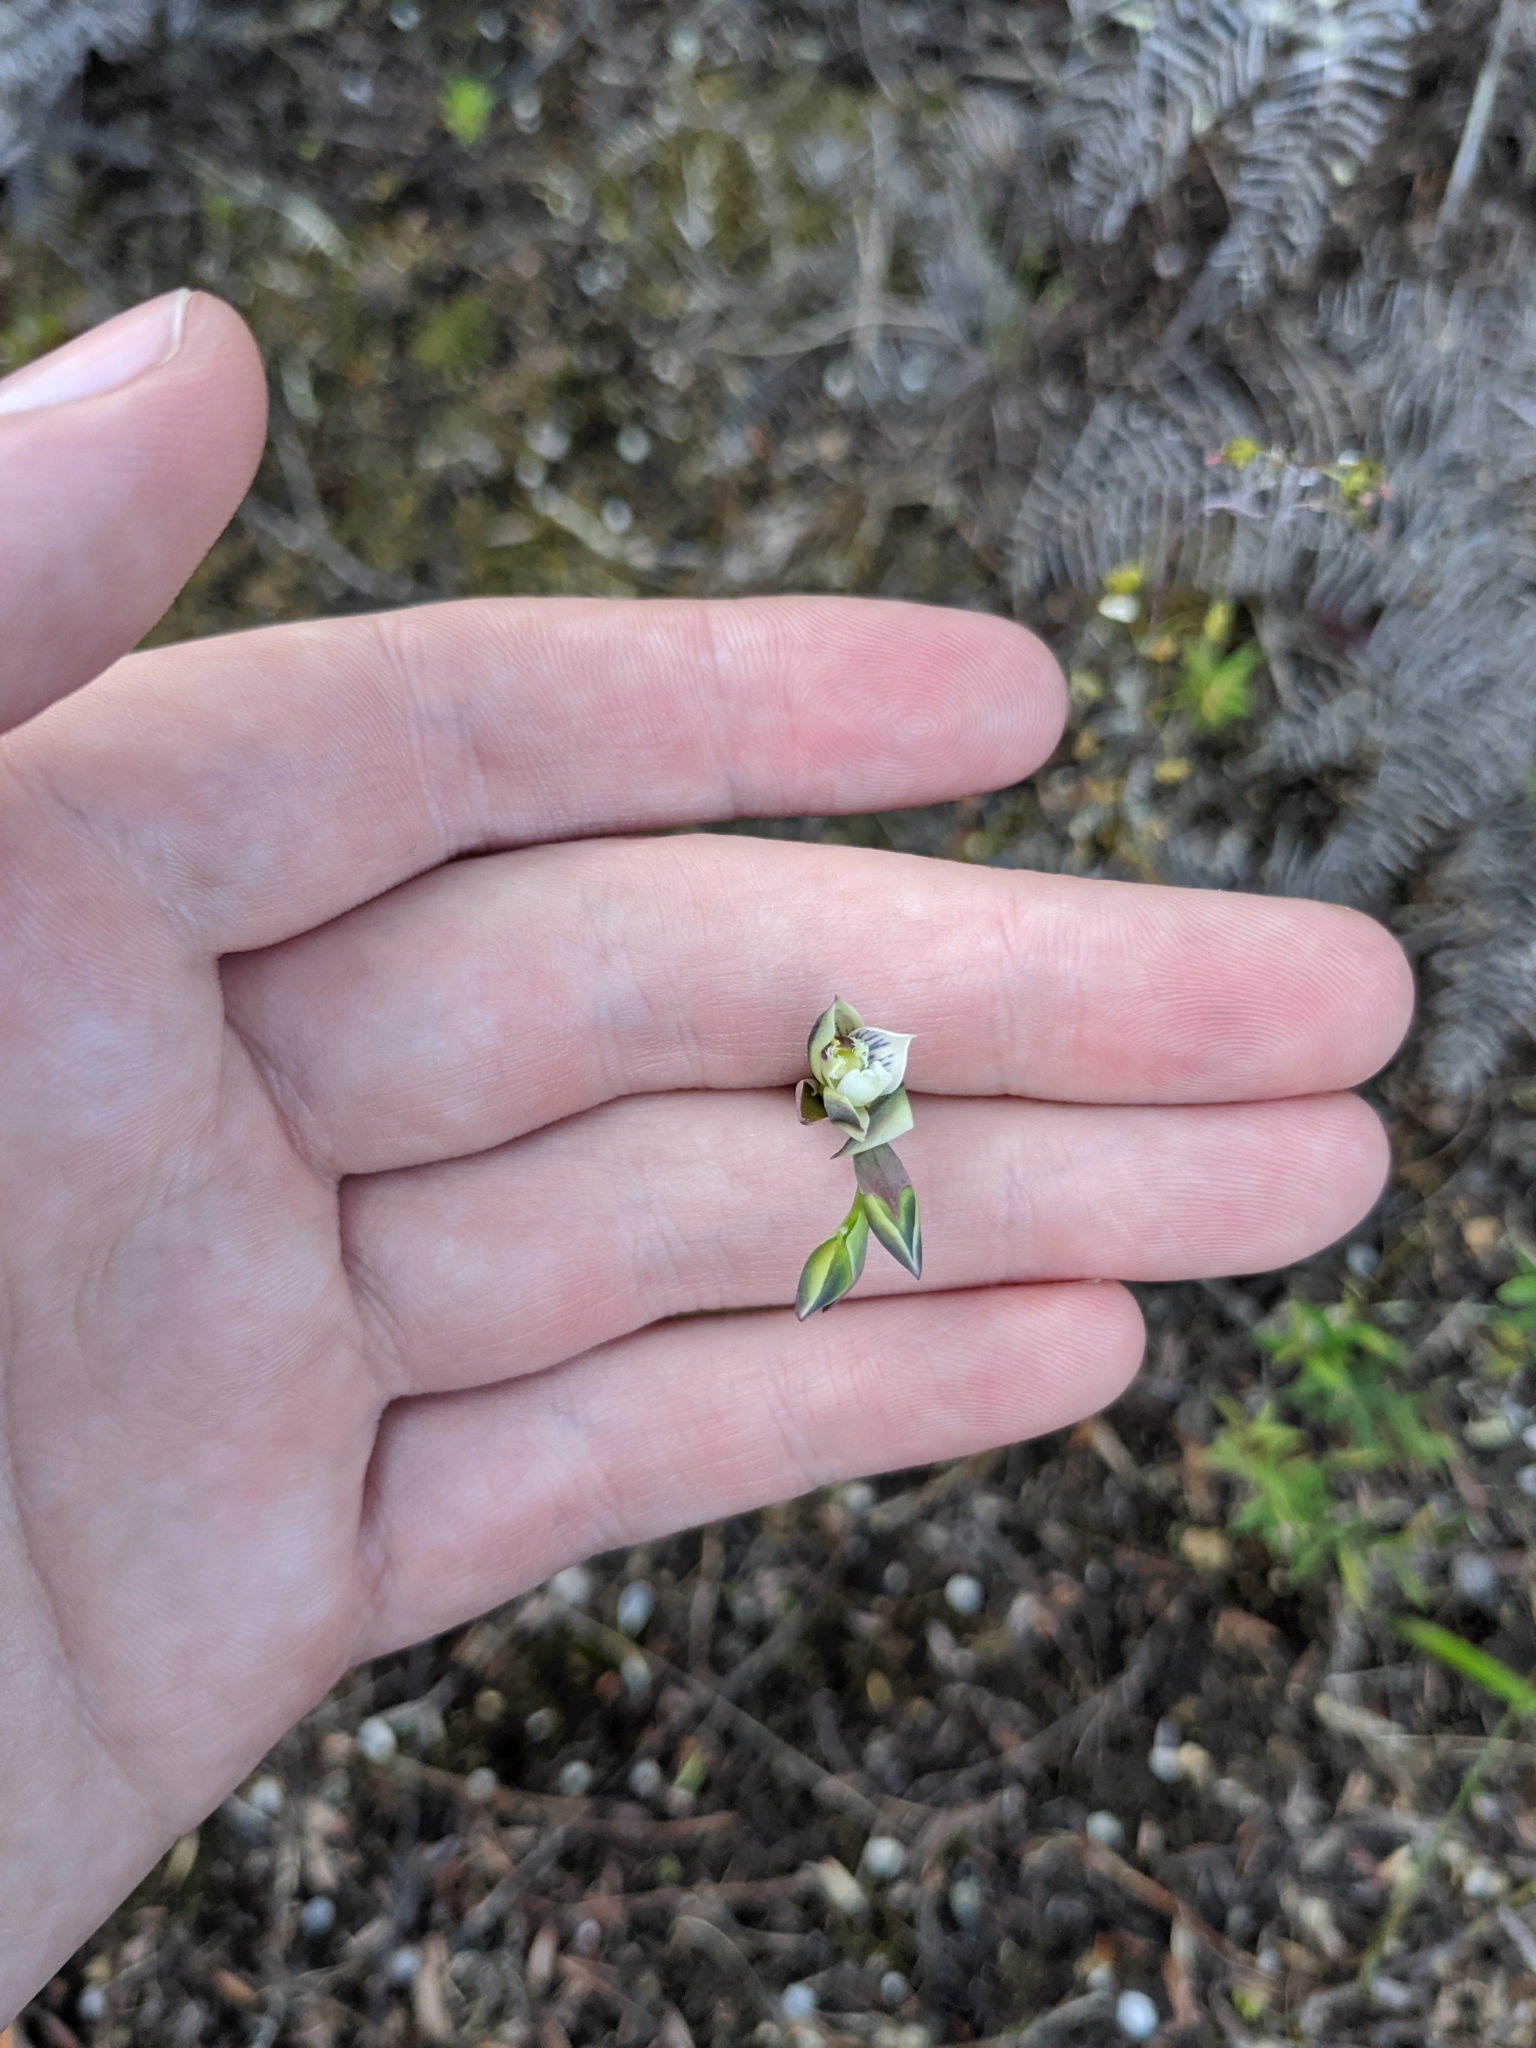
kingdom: Plantae
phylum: Tracheophyta
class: Liliopsida
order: Asparagales
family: Orchidaceae
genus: Thelymitra
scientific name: Thelymitra pulchella
